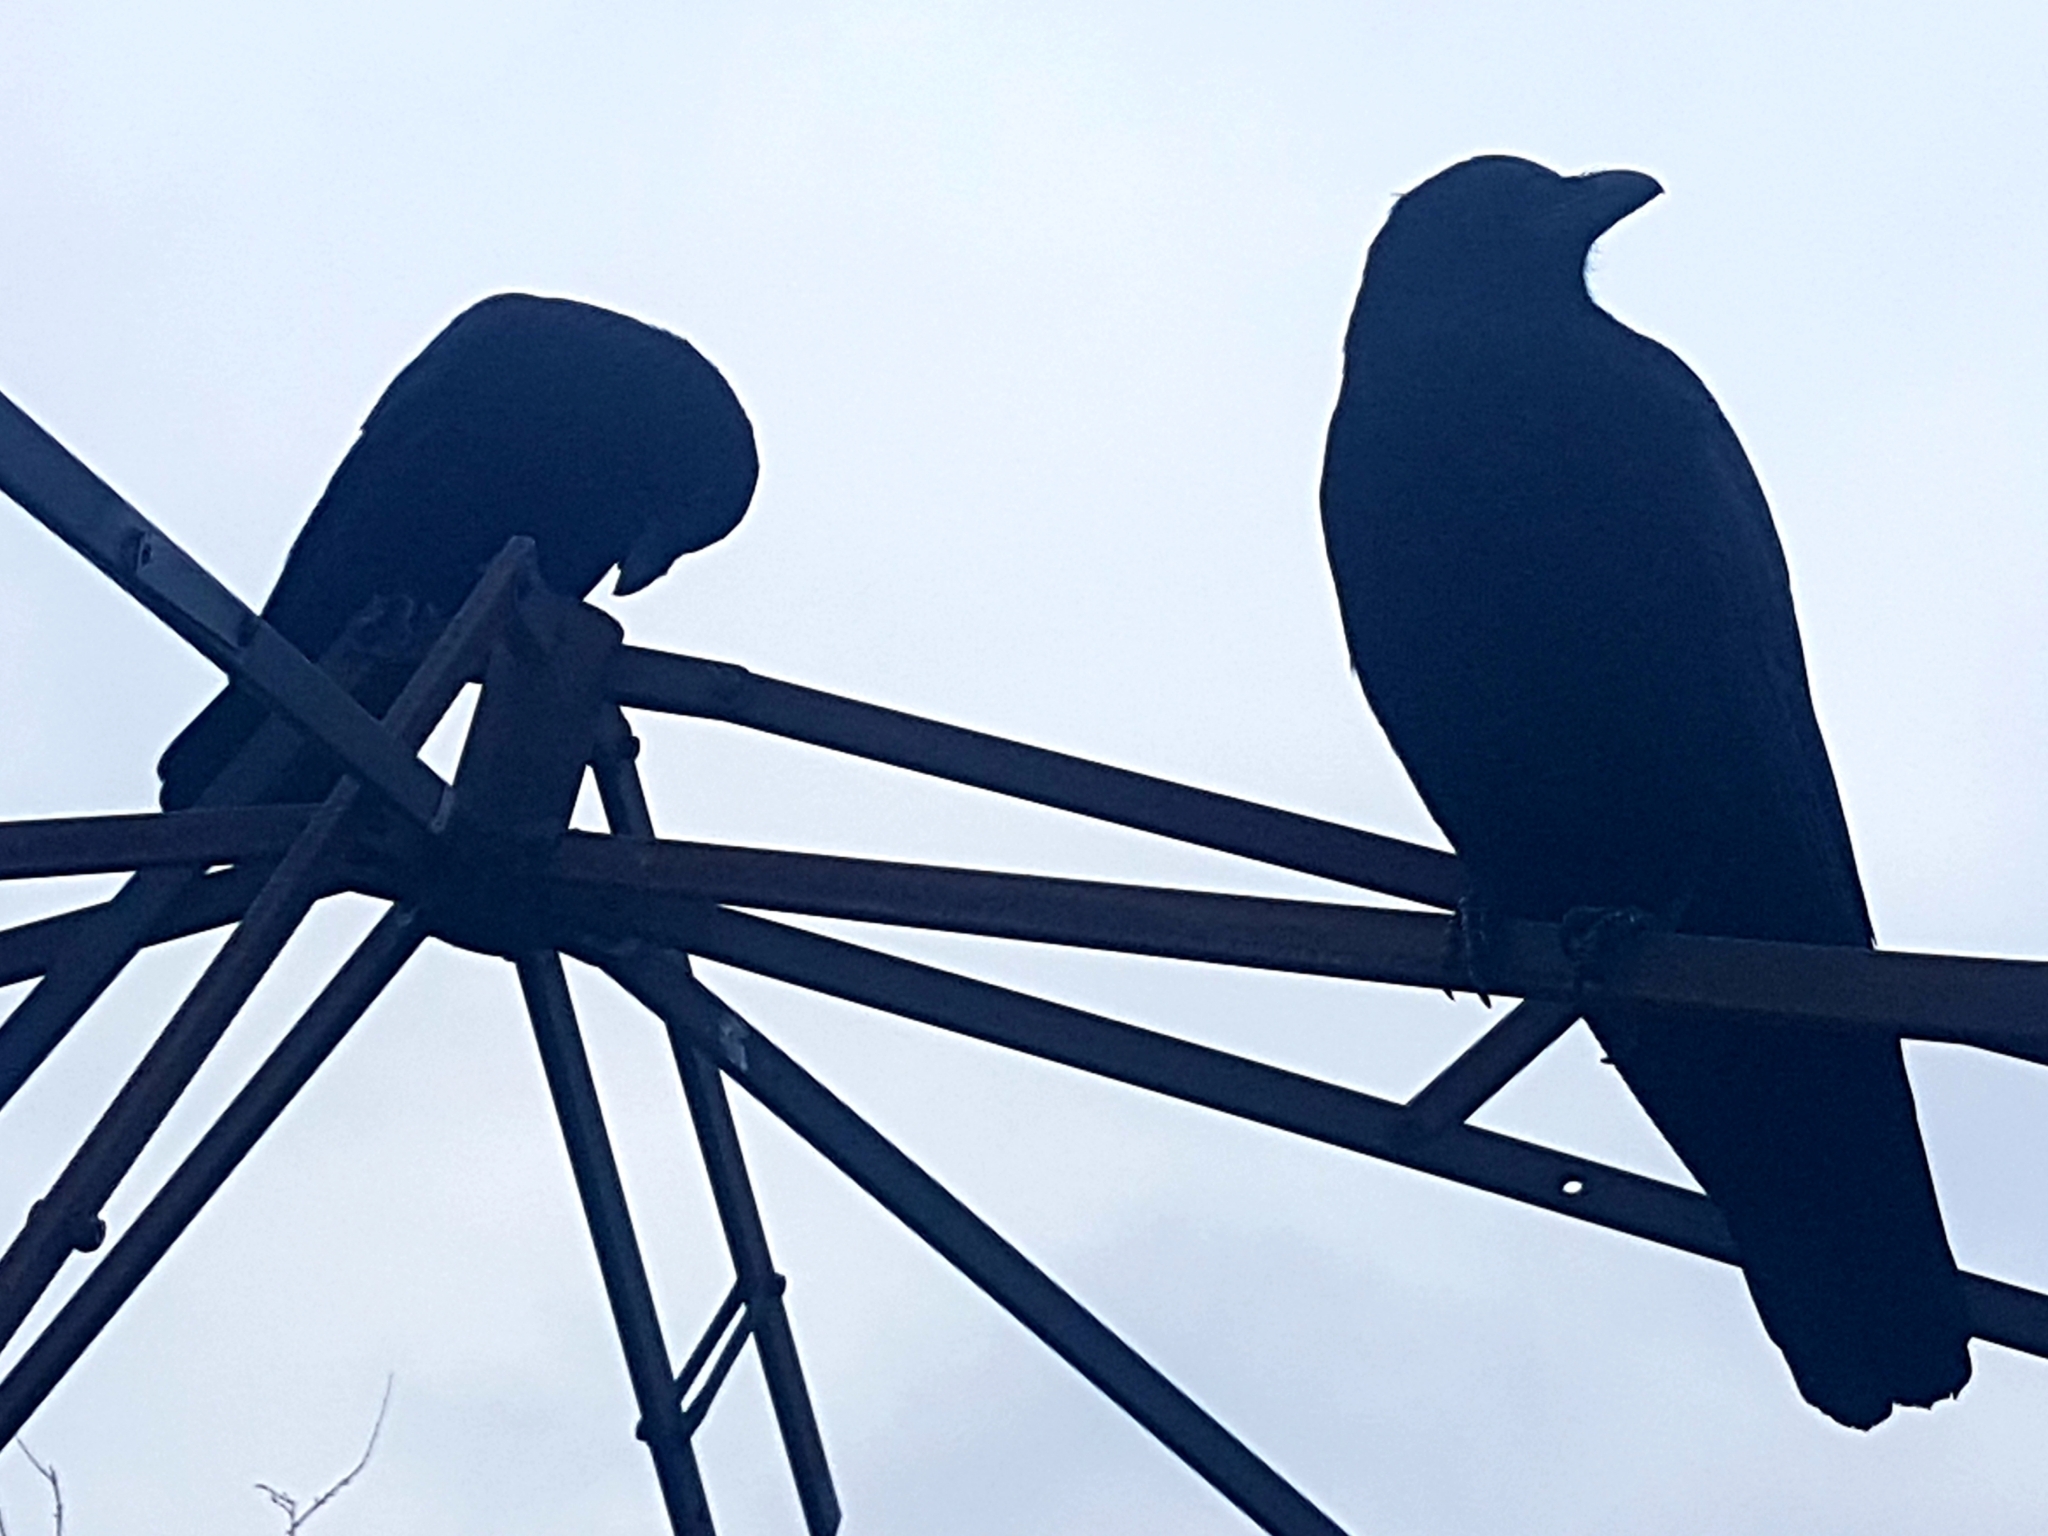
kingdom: Animalia
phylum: Chordata
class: Aves
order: Passeriformes
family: Corvidae
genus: Corvus
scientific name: Corvus brachyrhynchos
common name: American crow
